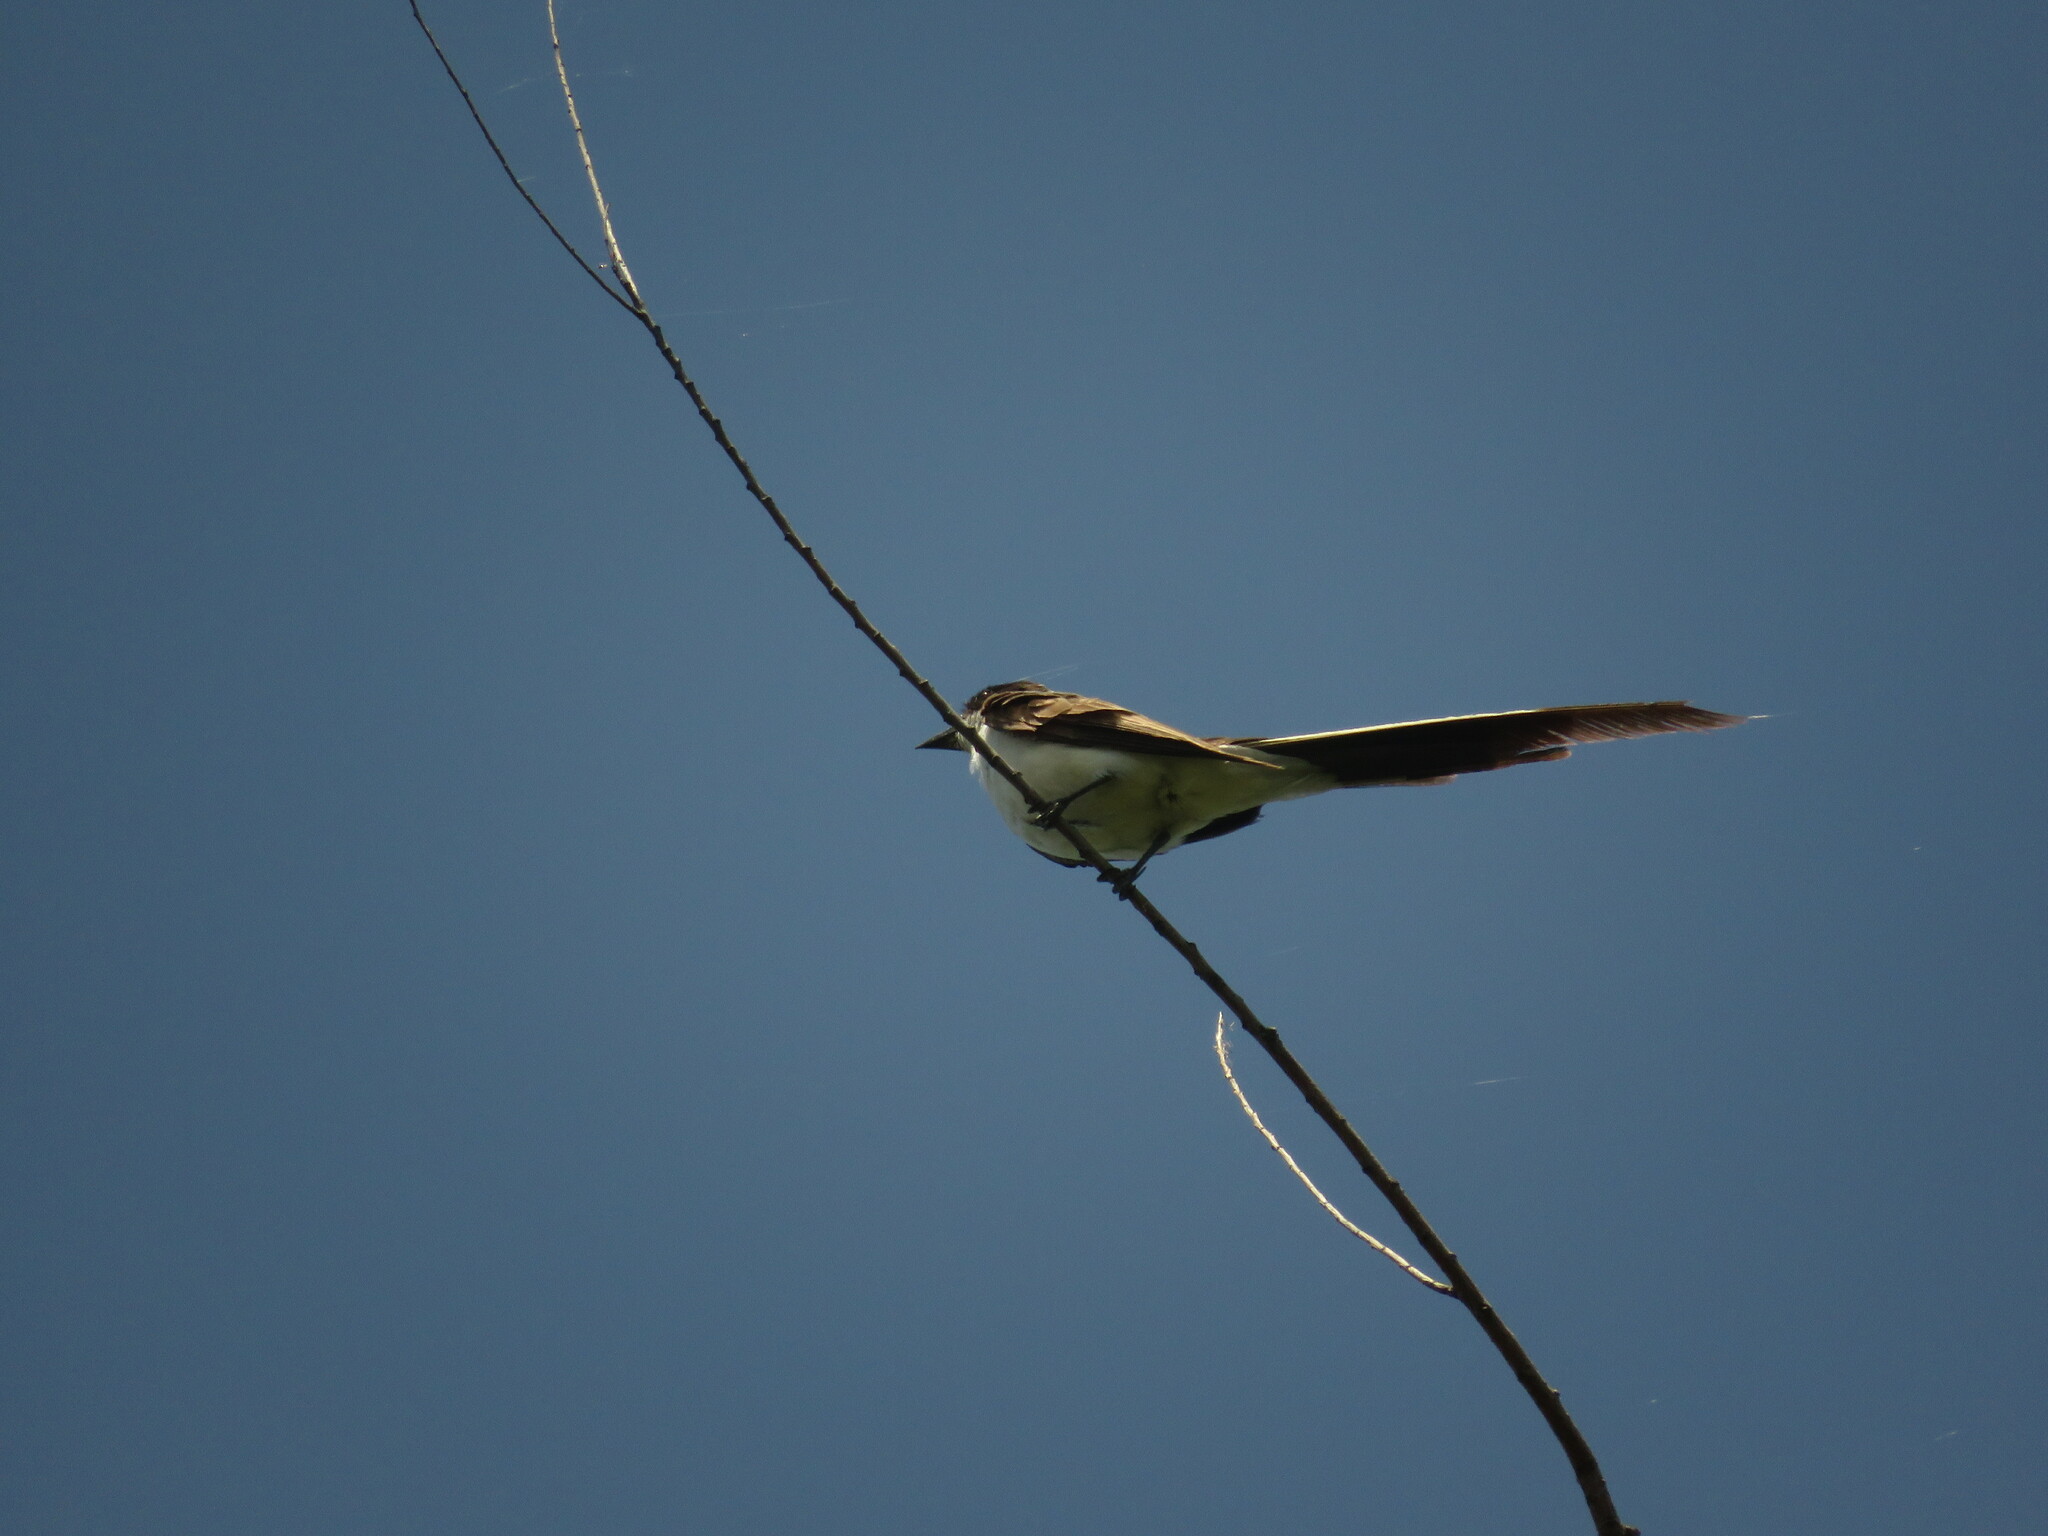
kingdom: Animalia
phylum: Chordata
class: Aves
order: Passeriformes
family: Tyrannidae
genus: Tyrannus
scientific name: Tyrannus savana
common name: Fork-tailed flycatcher
